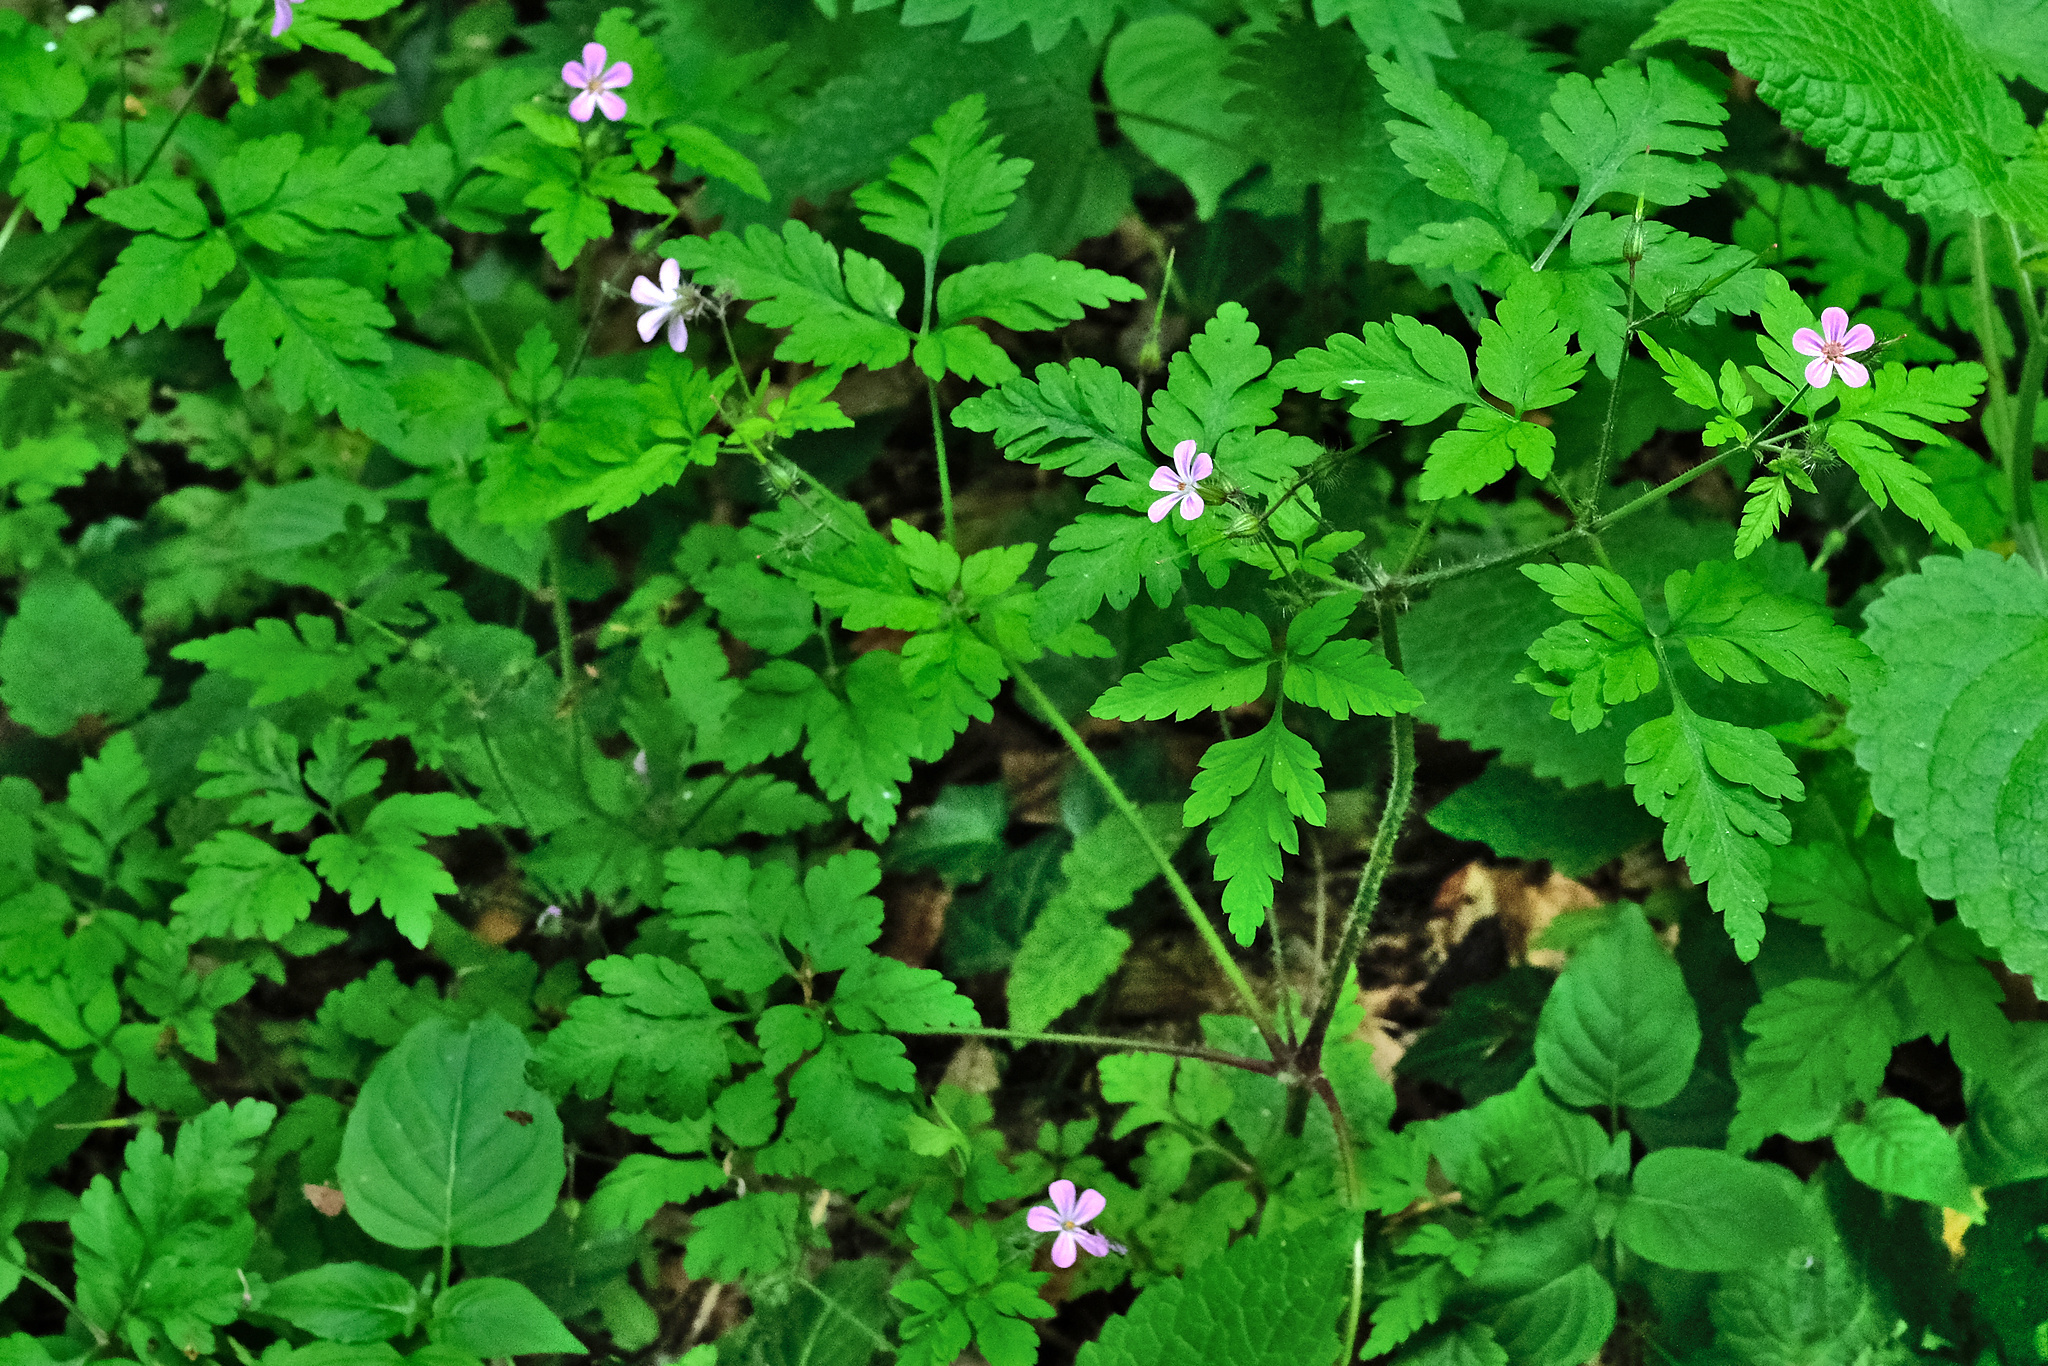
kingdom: Plantae
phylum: Tracheophyta
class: Magnoliopsida
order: Geraniales
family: Geraniaceae
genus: Geranium
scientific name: Geranium robertianum
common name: Herb-robert
